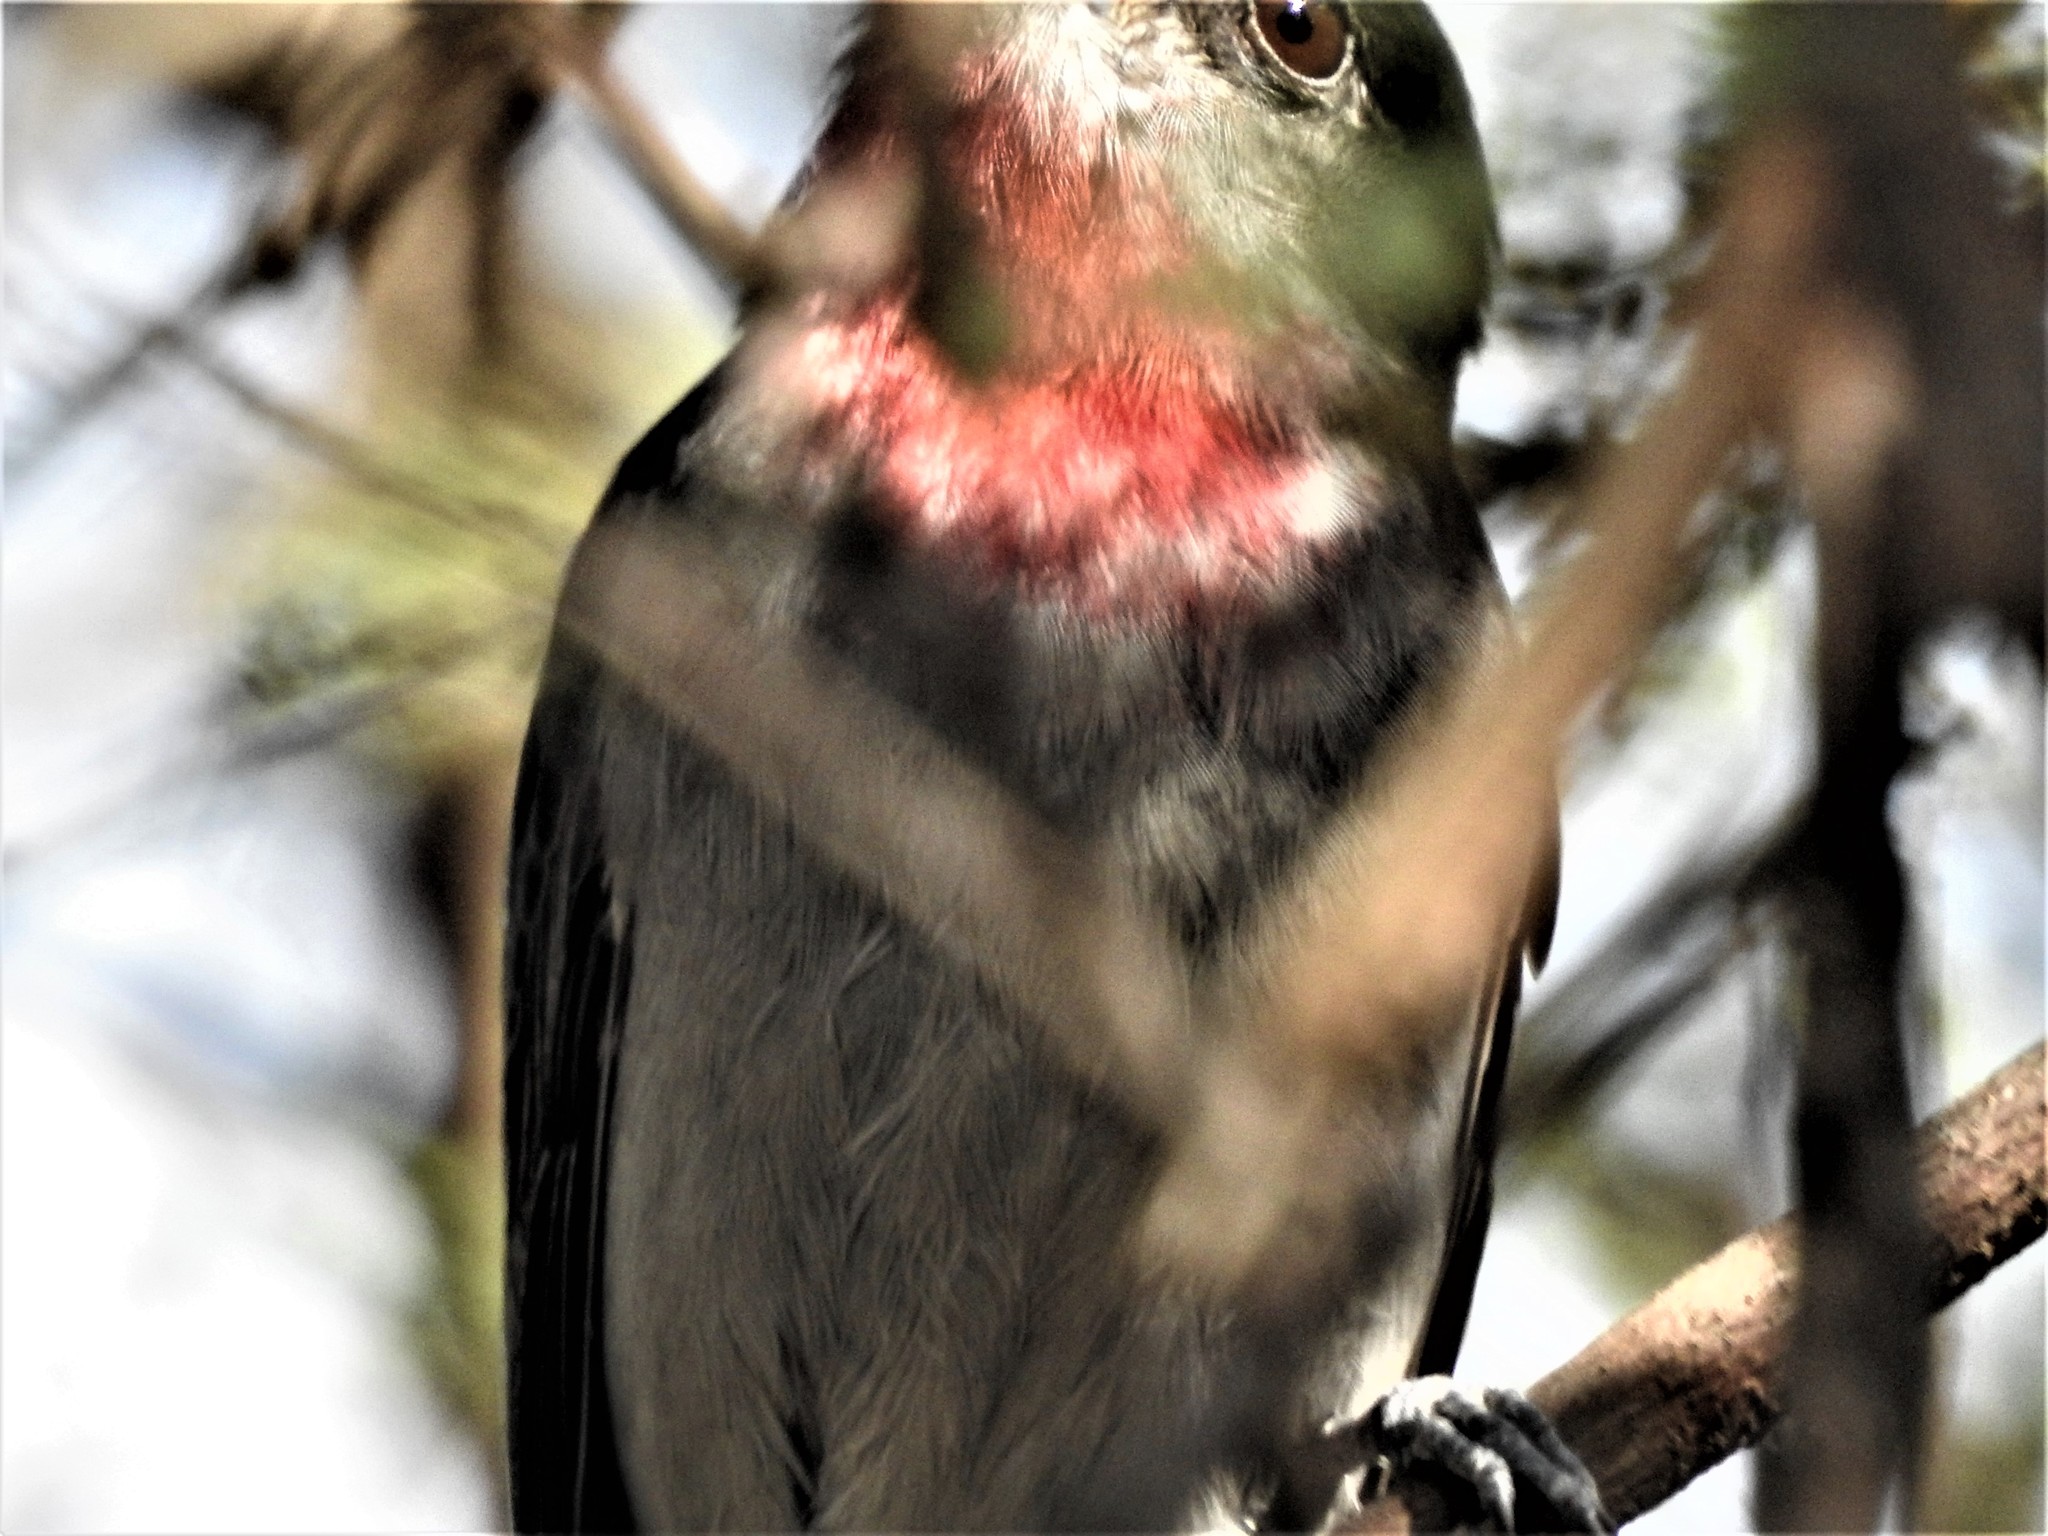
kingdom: Animalia
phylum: Chordata
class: Aves
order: Passeriformes
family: Cotingidae
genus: Pachyramphus
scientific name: Pachyramphus aglaiae
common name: Rose-throated becard
